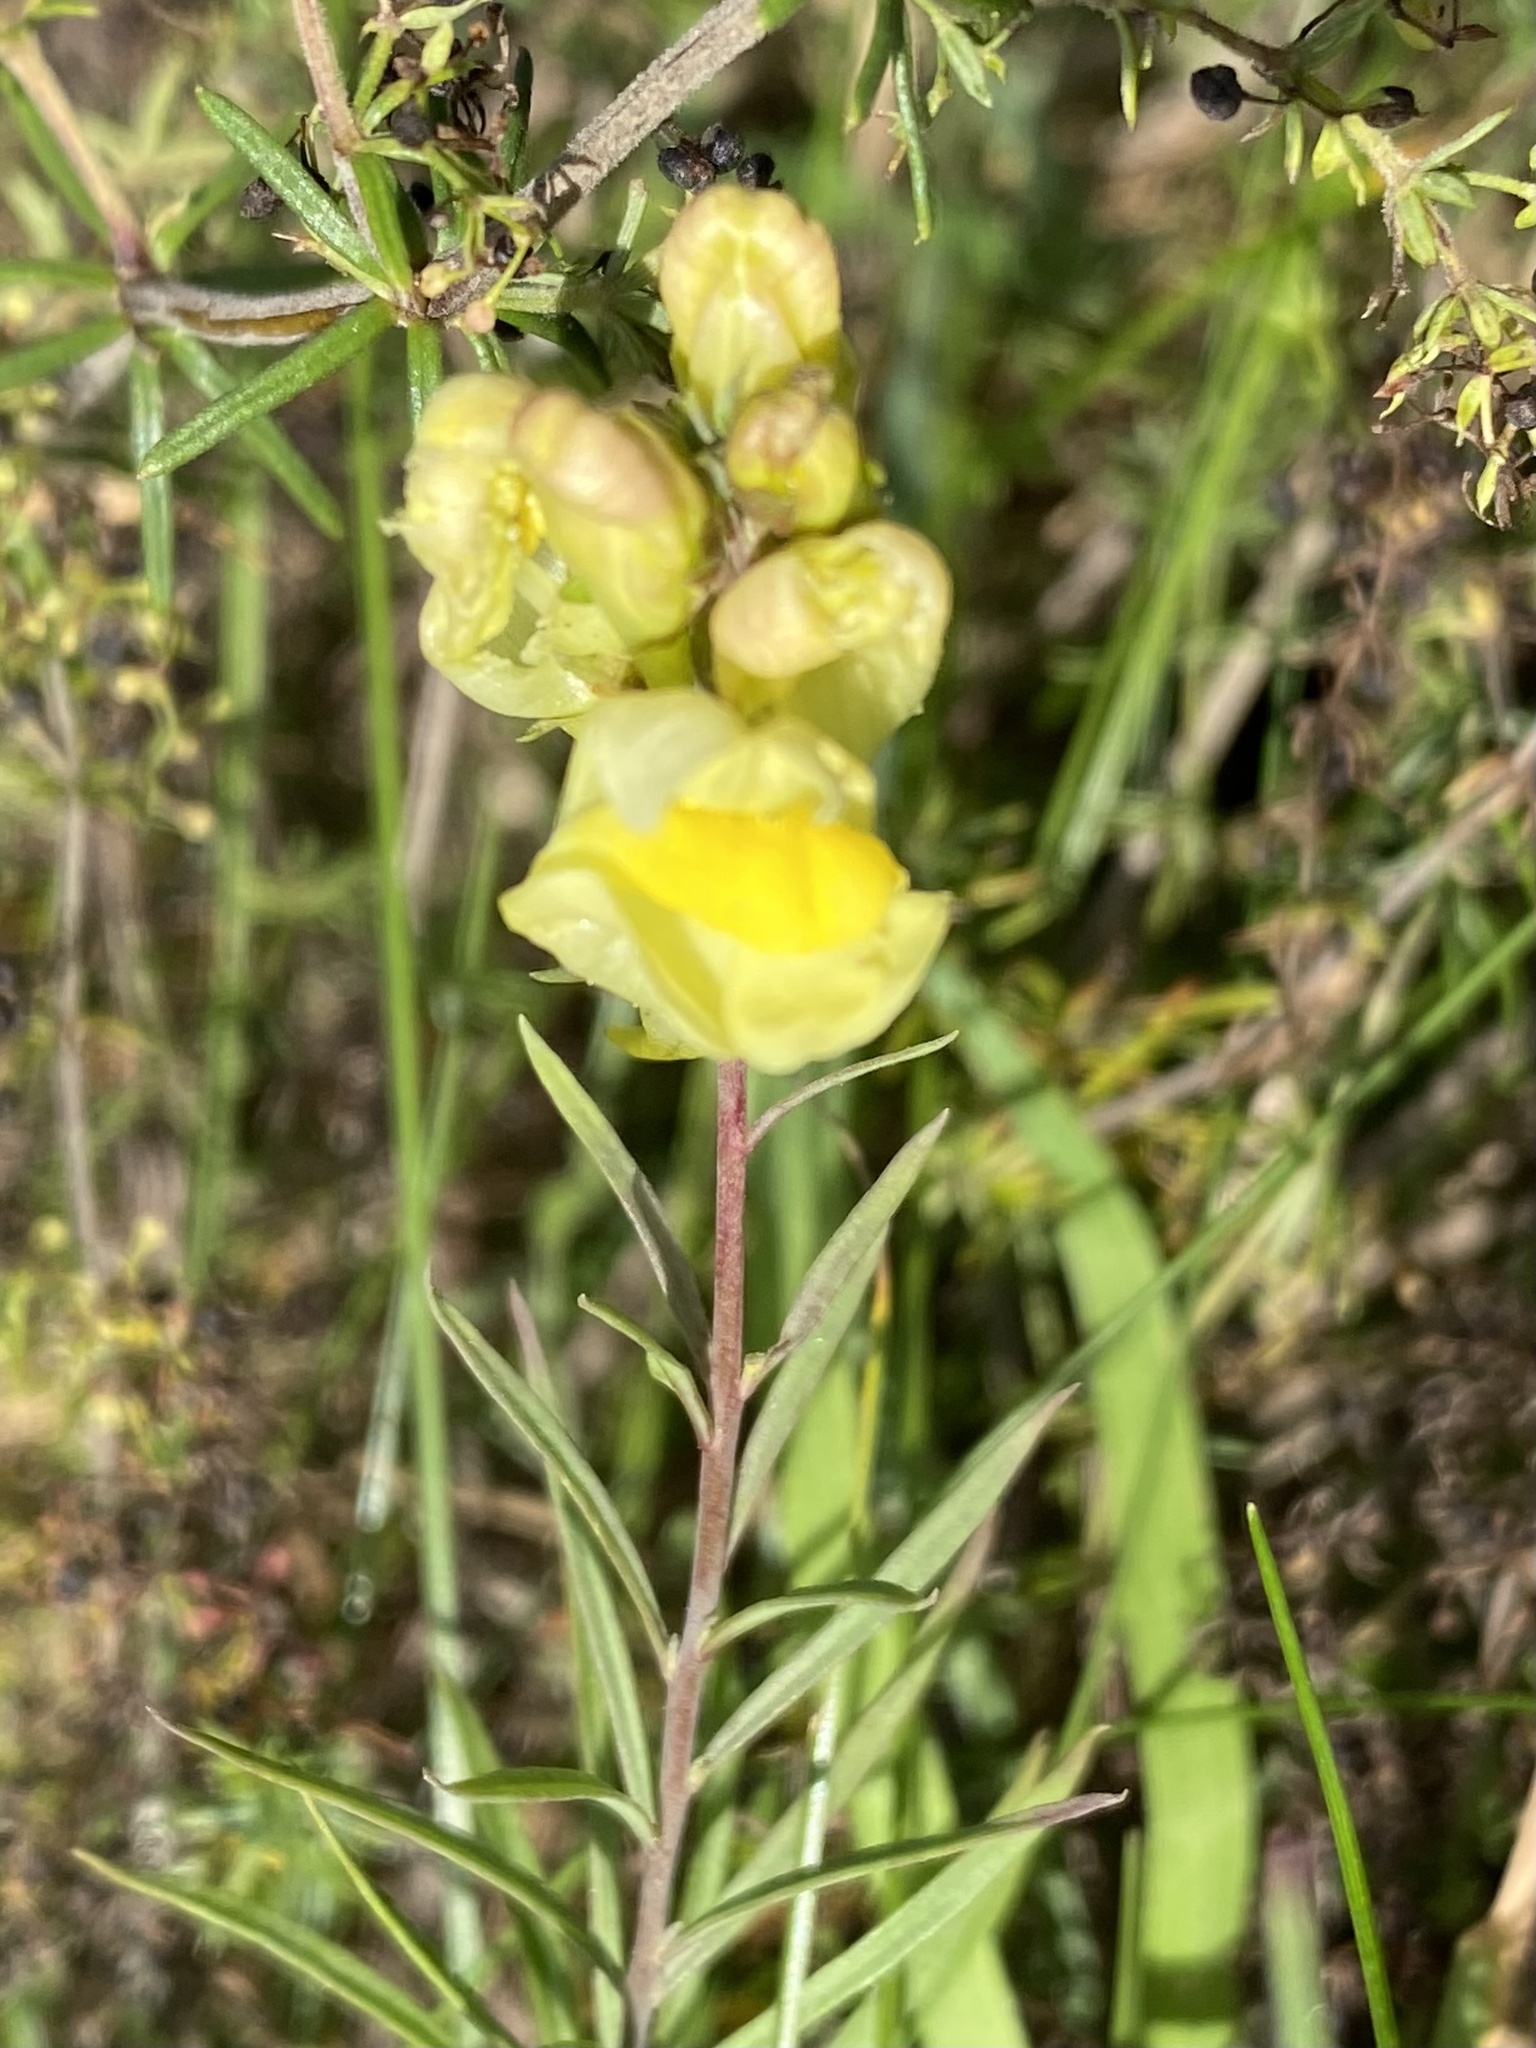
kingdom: Plantae
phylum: Tracheophyta
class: Magnoliopsida
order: Lamiales
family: Plantaginaceae
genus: Linaria
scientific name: Linaria vulgaris
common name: Butter and eggs
